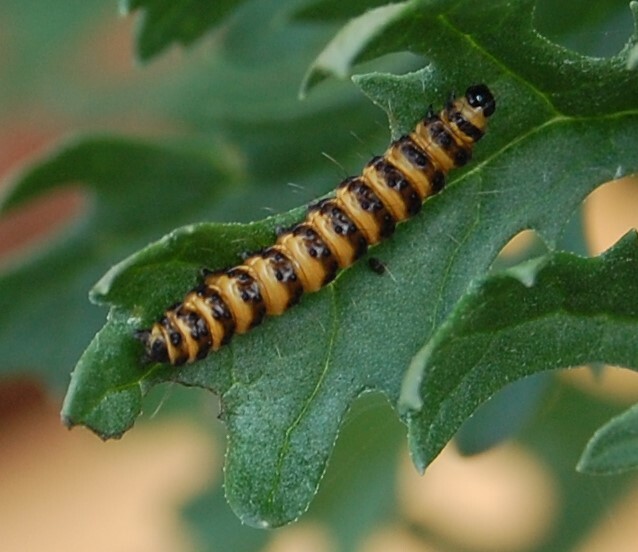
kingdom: Animalia
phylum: Arthropoda
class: Insecta
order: Lepidoptera
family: Erebidae
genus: Tyria
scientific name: Tyria jacobaeae
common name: Cinnabar
